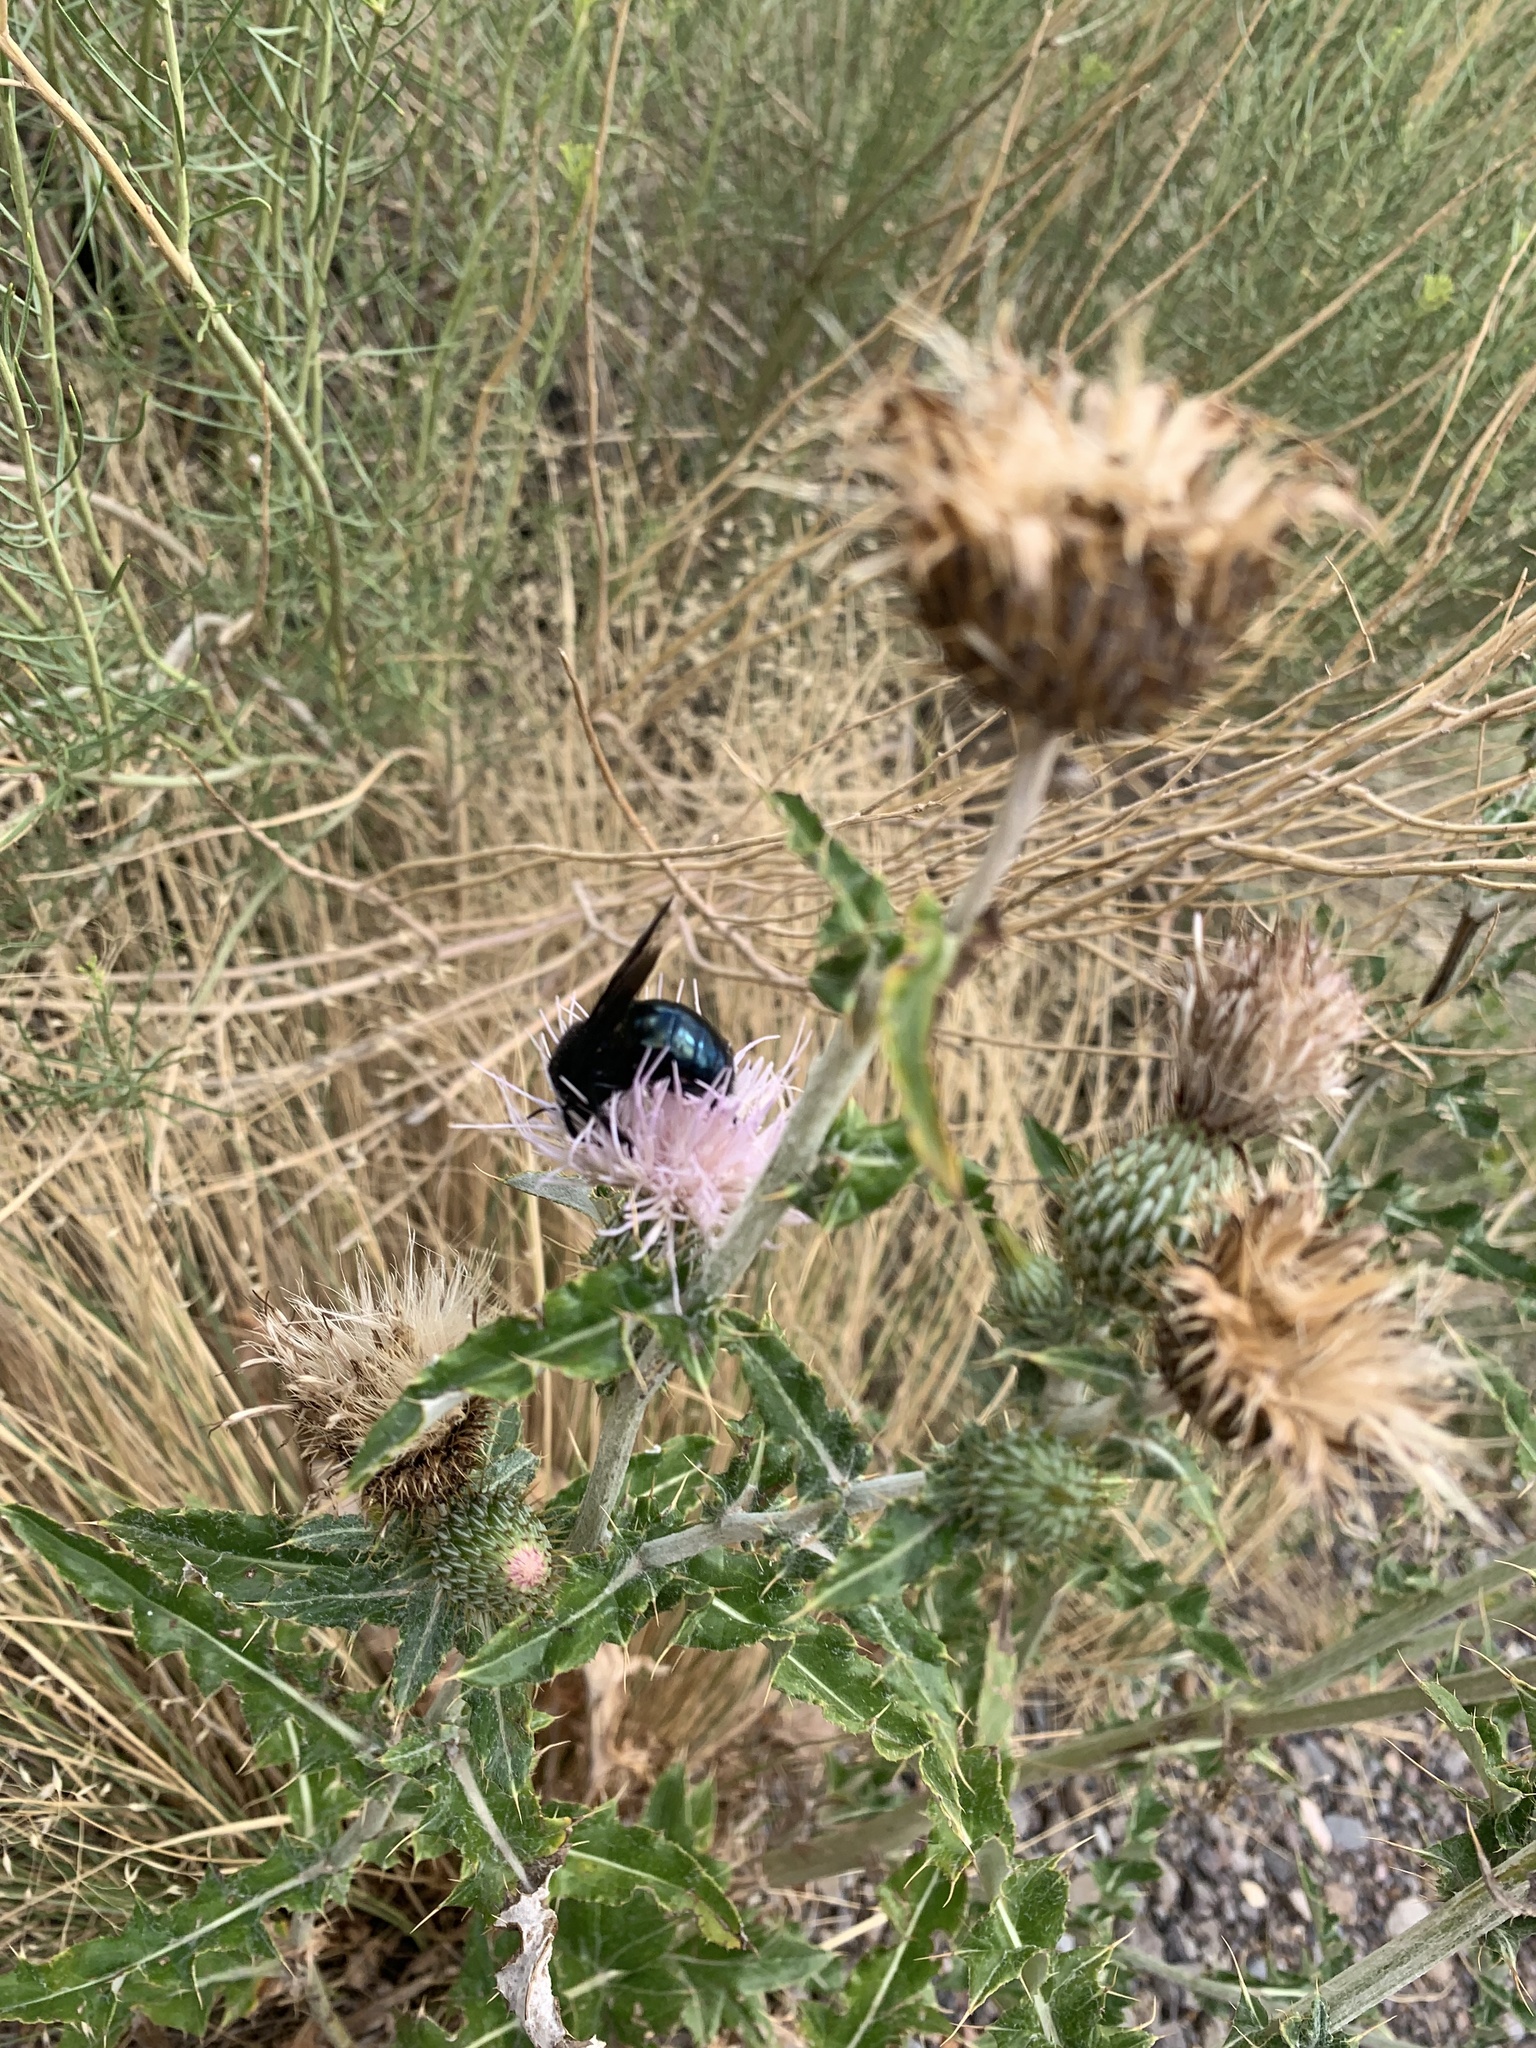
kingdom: Animalia
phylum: Arthropoda
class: Insecta
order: Hymenoptera
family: Apidae
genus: Xylocopa
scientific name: Xylocopa californica
